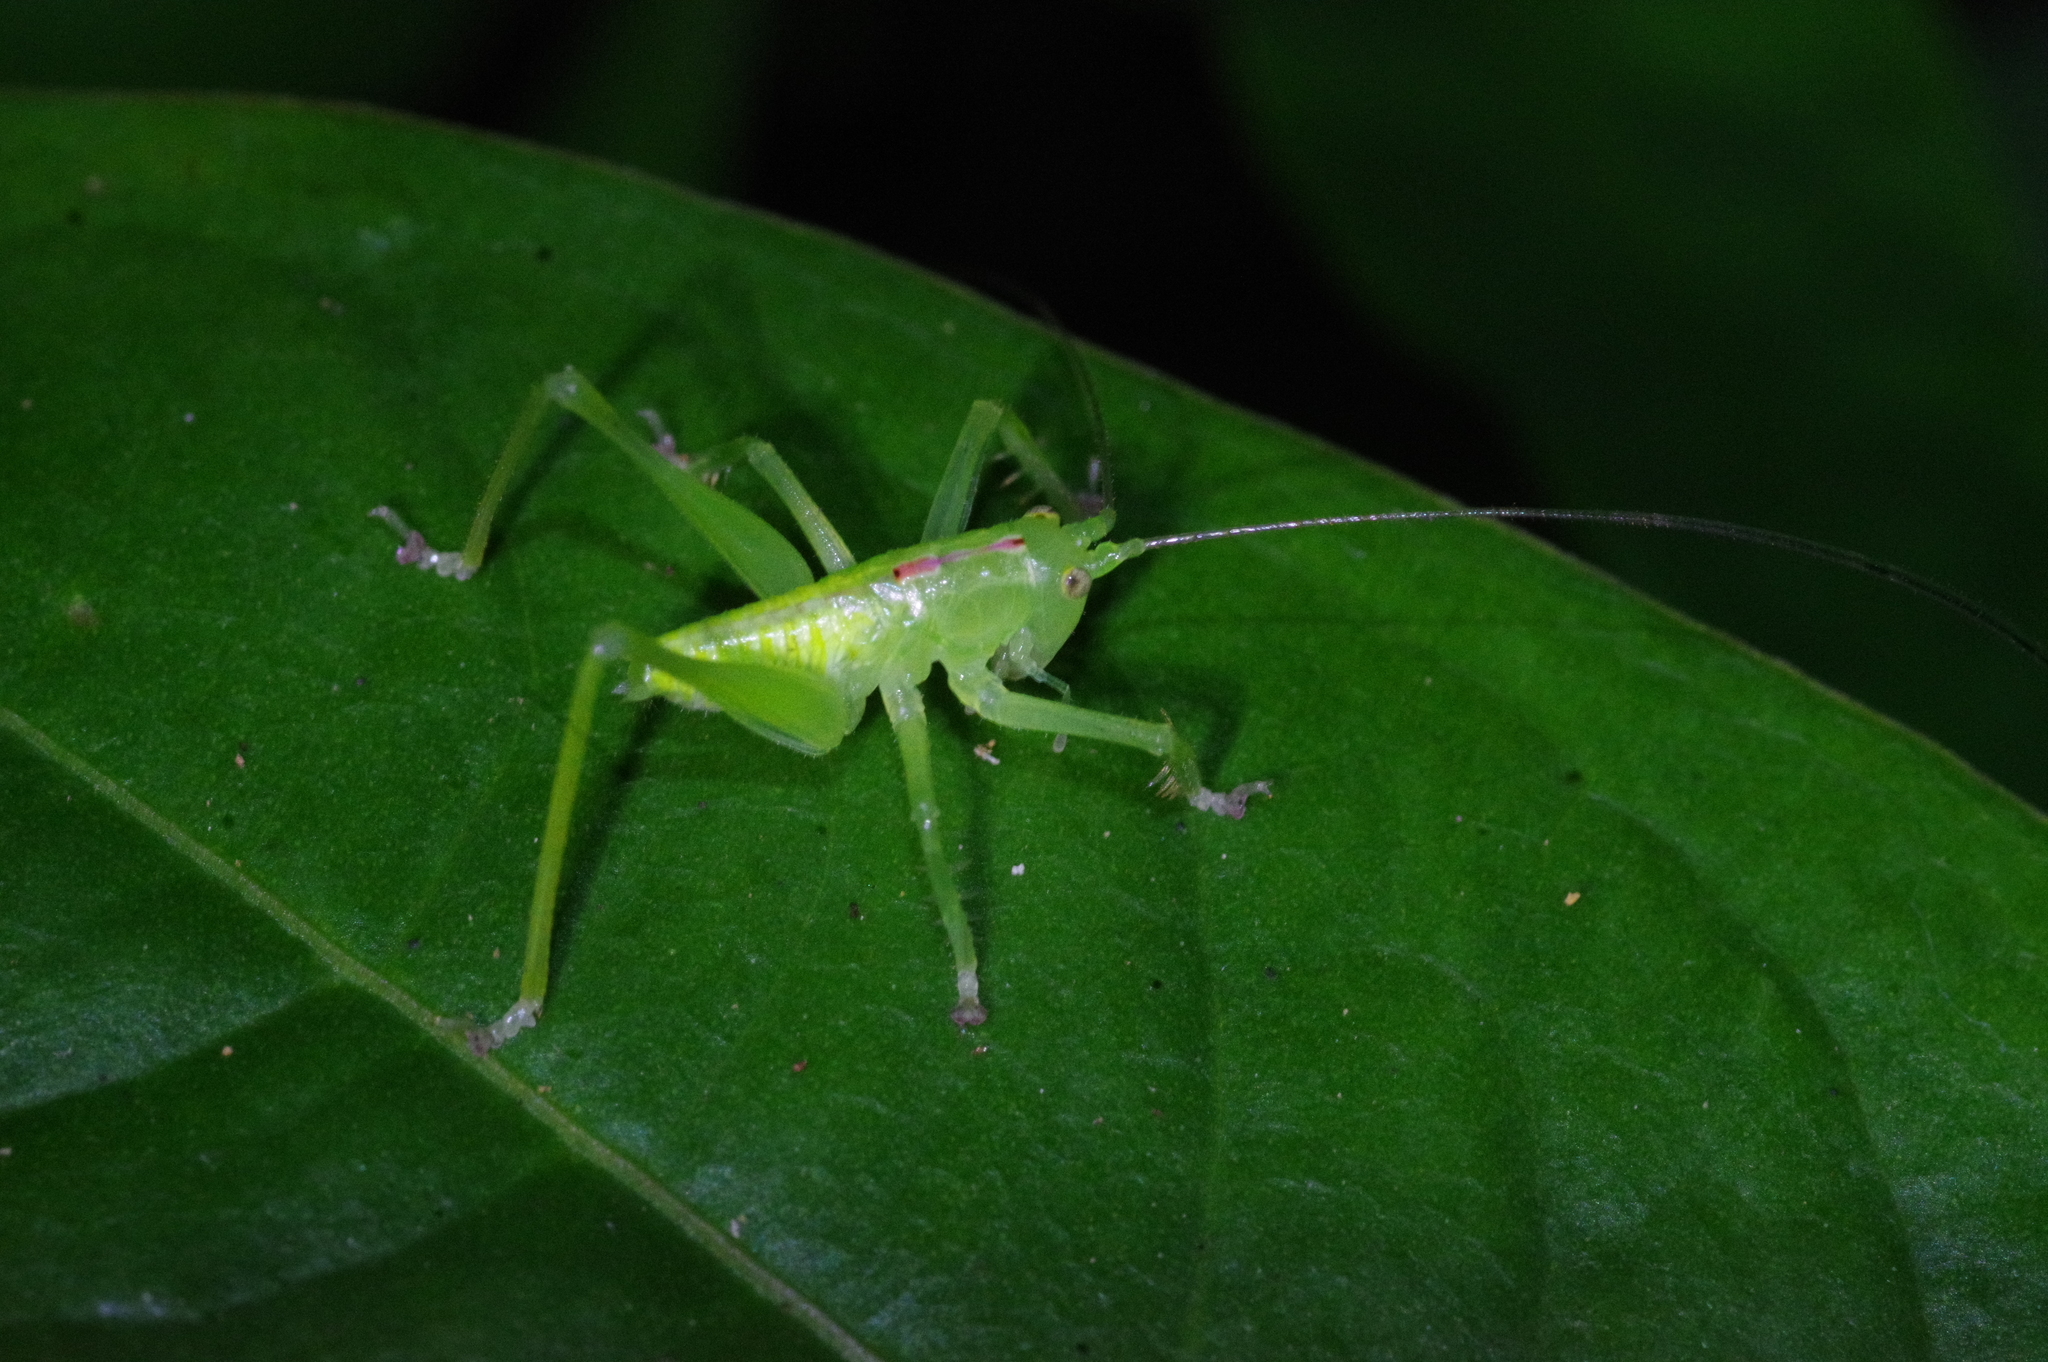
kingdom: Animalia
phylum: Arthropoda
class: Insecta
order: Orthoptera
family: Tettigoniidae
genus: Hexacentrus
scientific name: Hexacentrus unicolor
